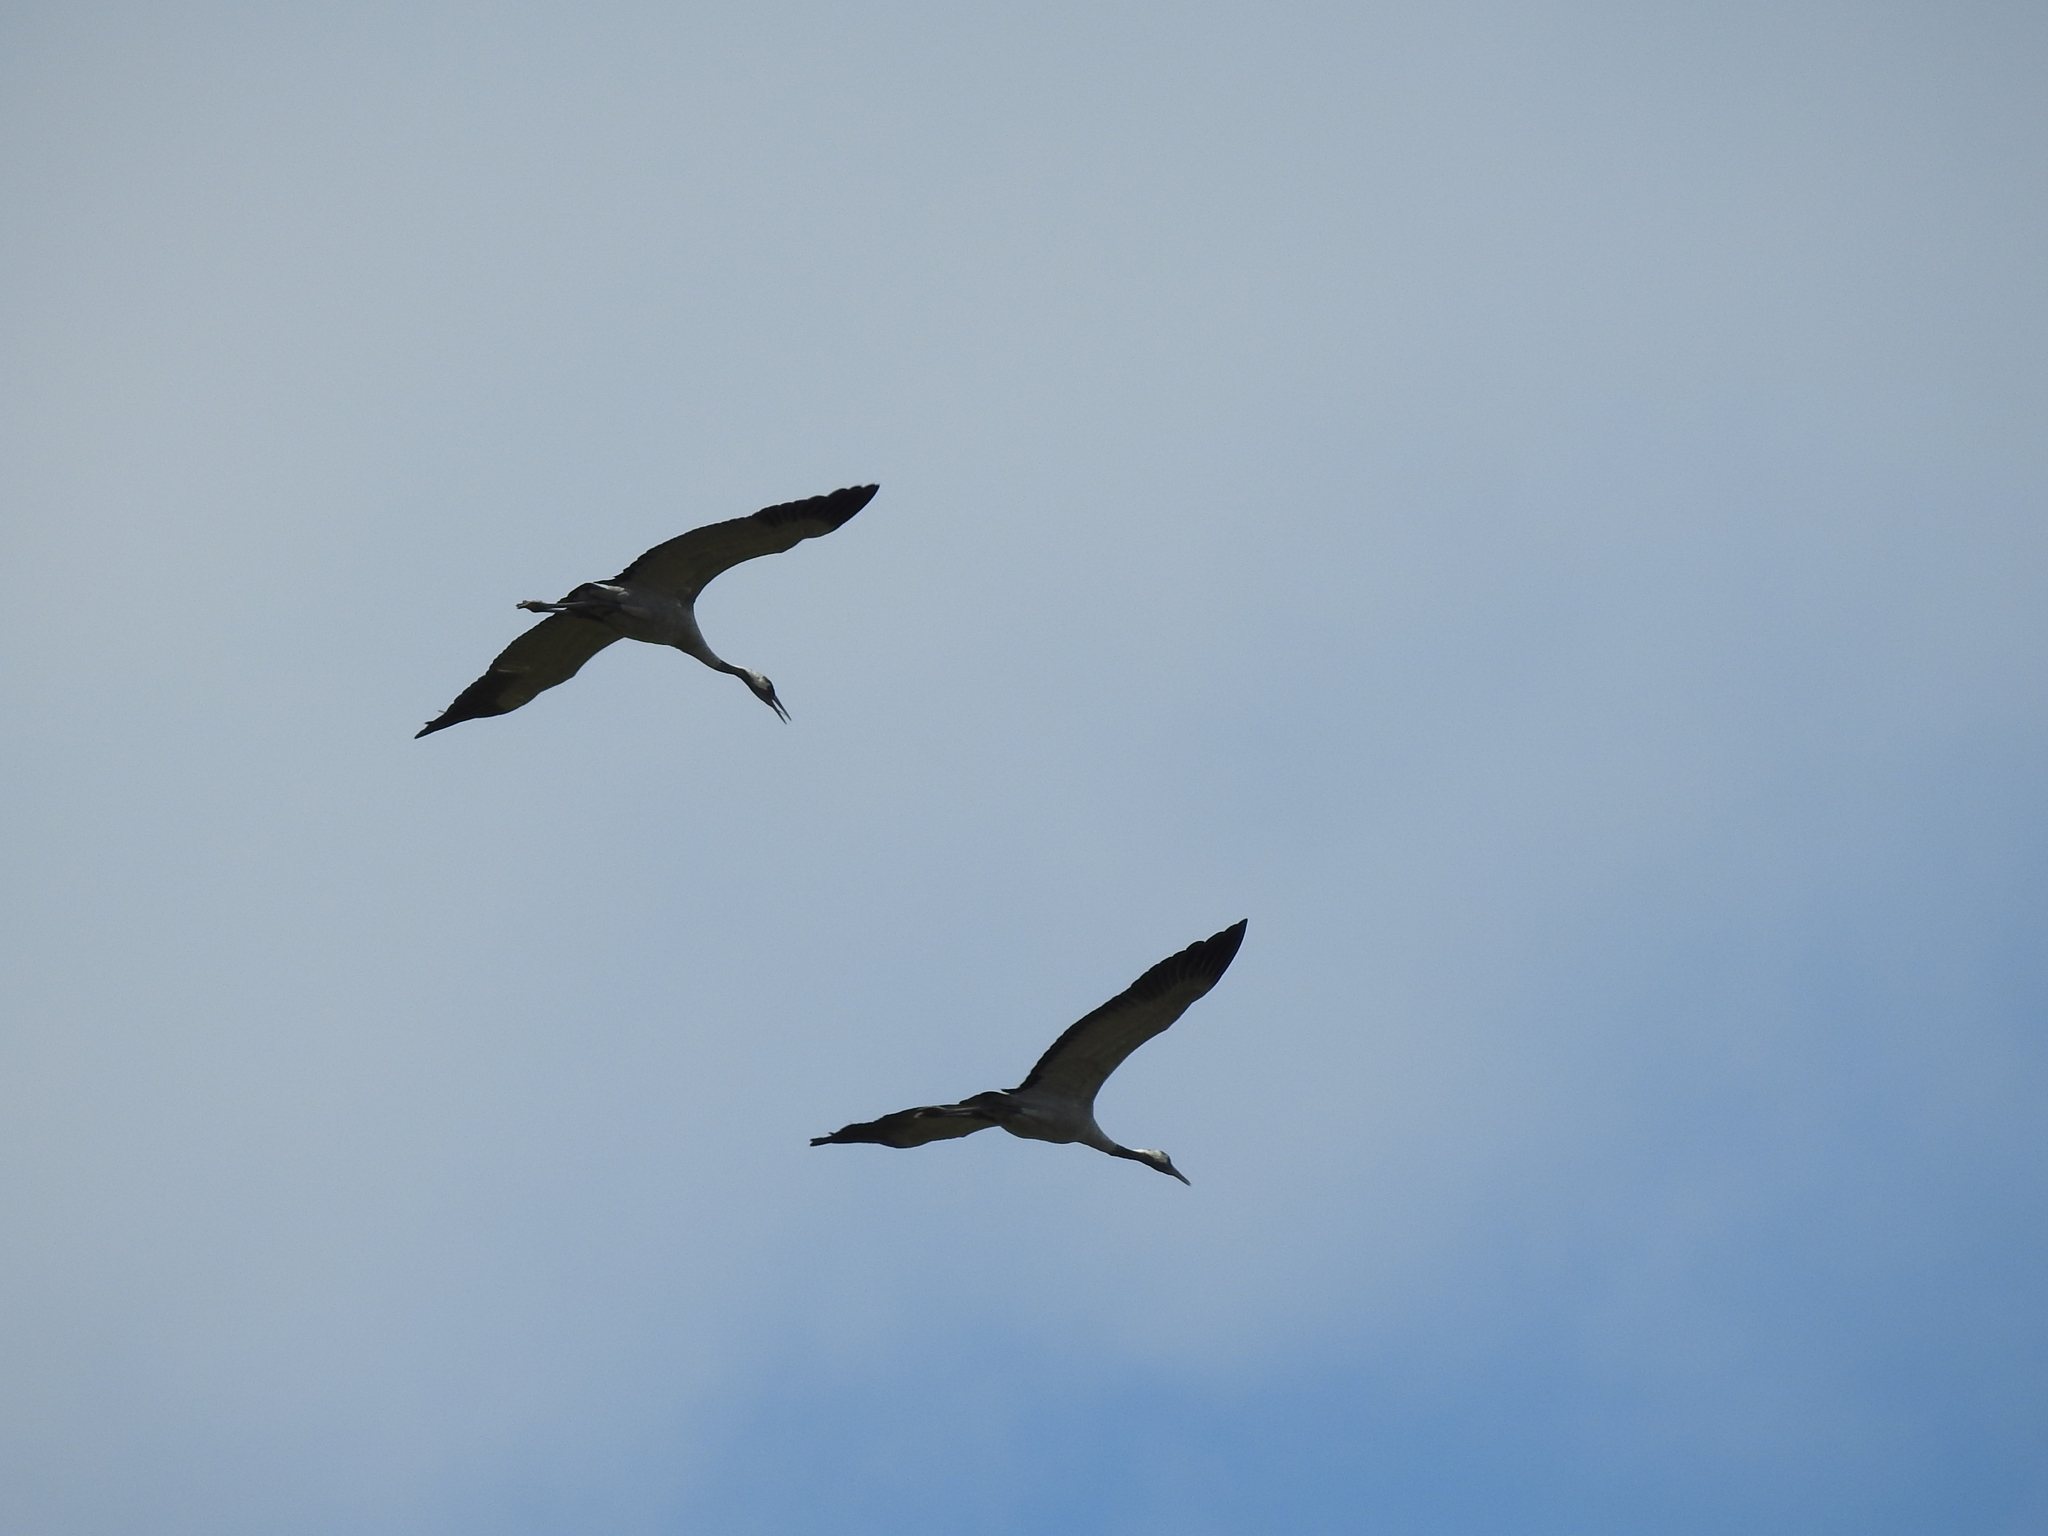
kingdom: Animalia
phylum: Chordata
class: Aves
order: Gruiformes
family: Gruidae
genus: Grus
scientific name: Grus grus
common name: Common crane
